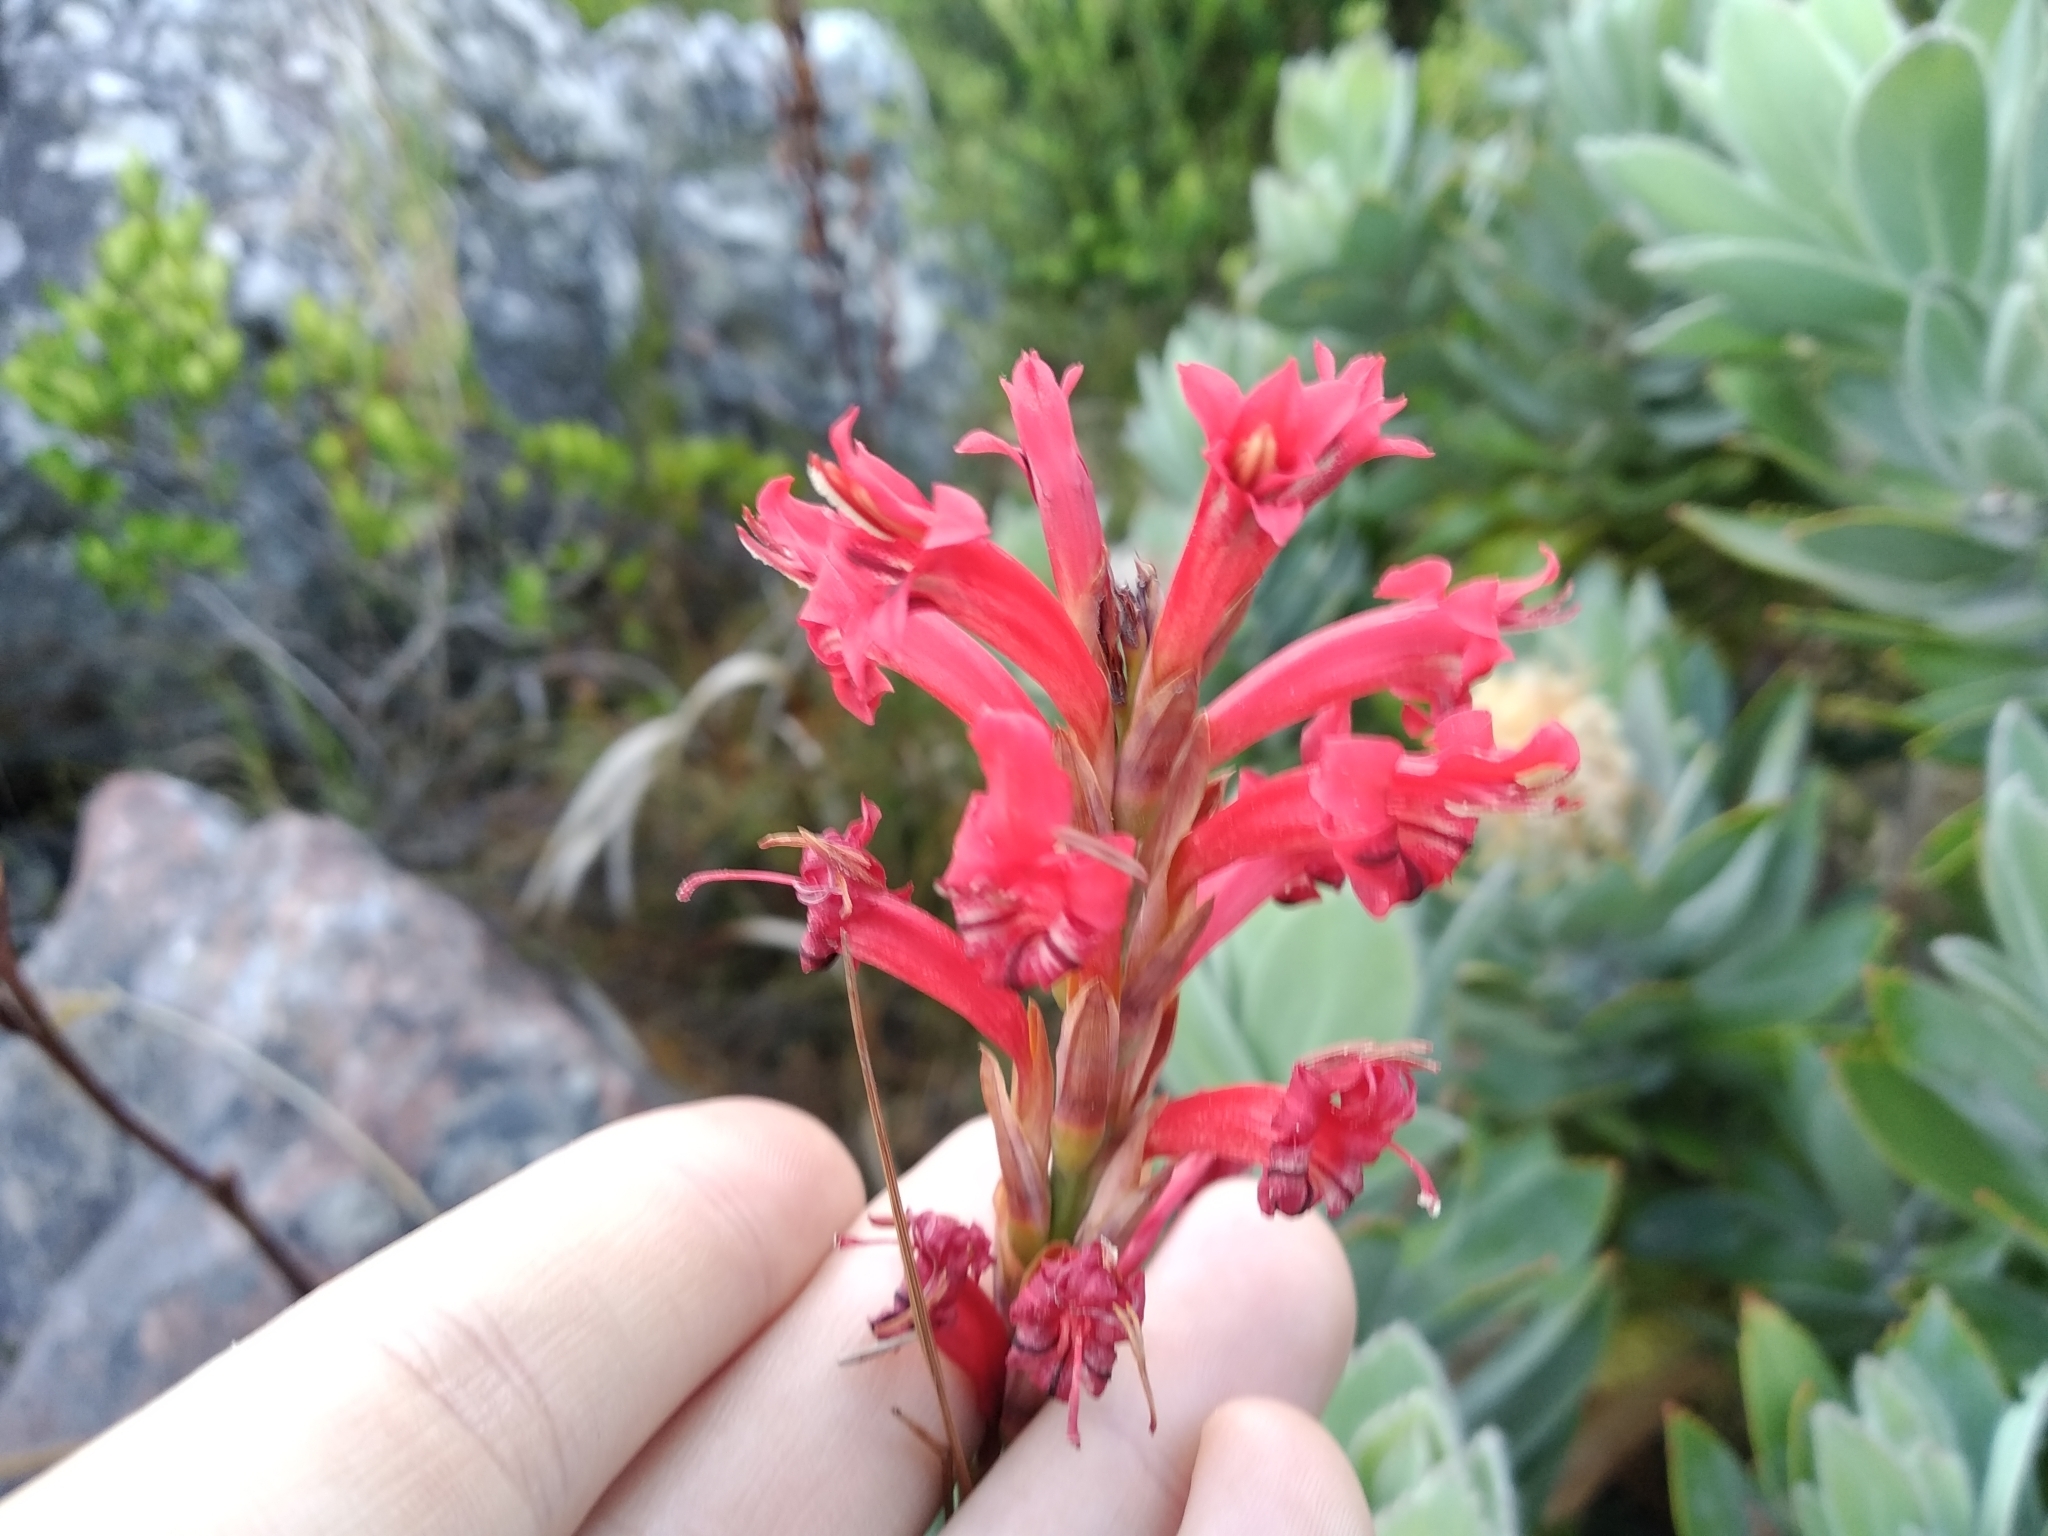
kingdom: Plantae
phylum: Tracheophyta
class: Liliopsida
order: Asparagales
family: Iridaceae
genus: Tritoniopsis
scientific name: Tritoniopsis triticea
